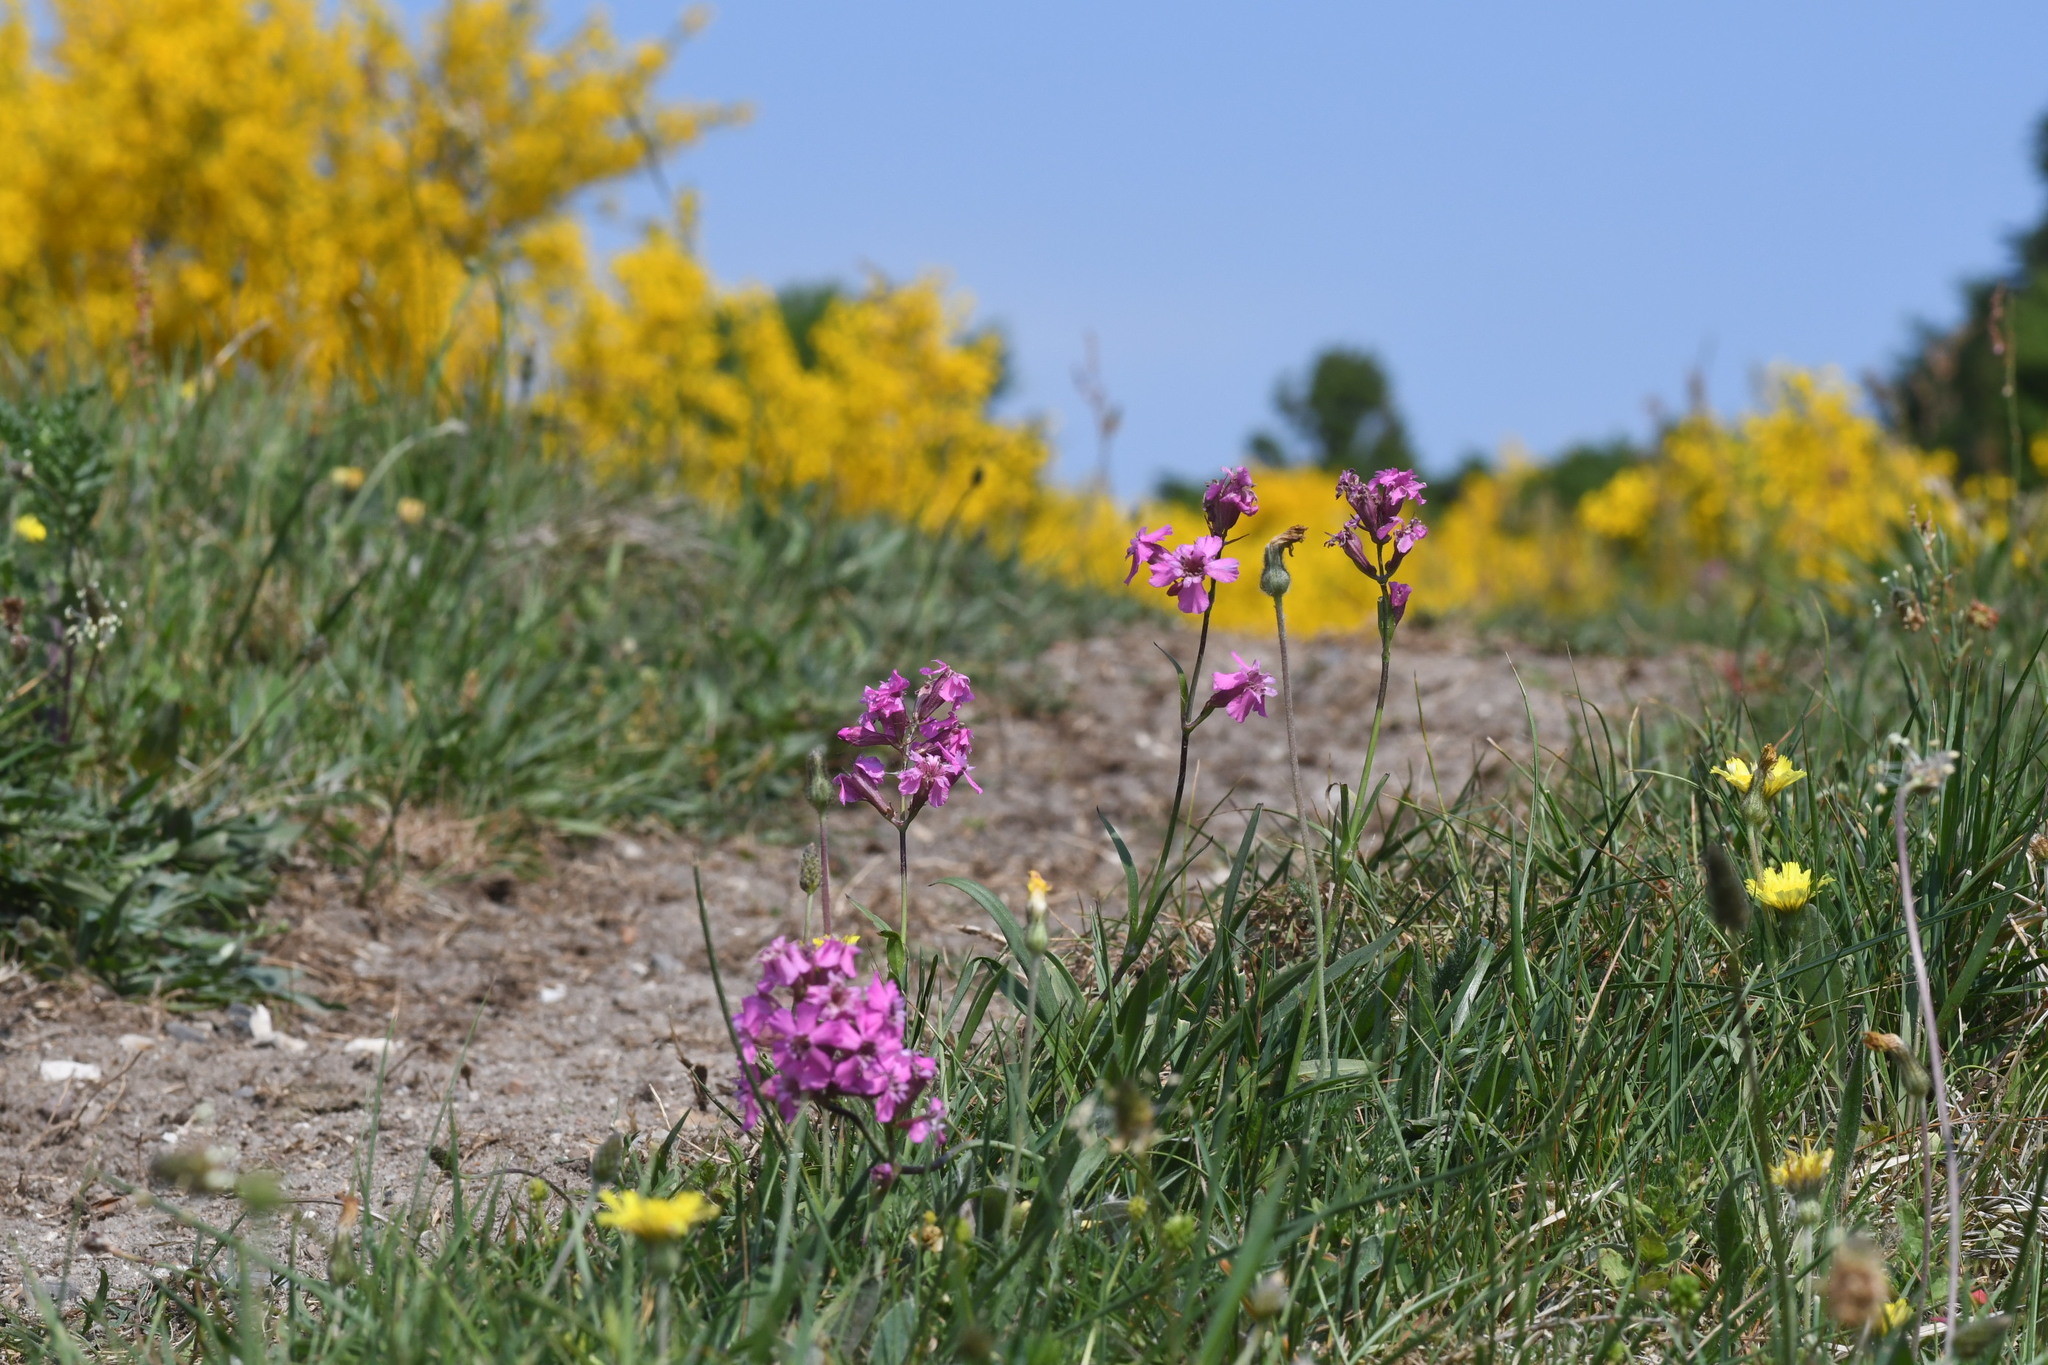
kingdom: Plantae
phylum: Tracheophyta
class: Magnoliopsida
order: Caryophyllales
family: Caryophyllaceae
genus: Viscaria
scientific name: Viscaria vulgaris
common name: Clammy campion
